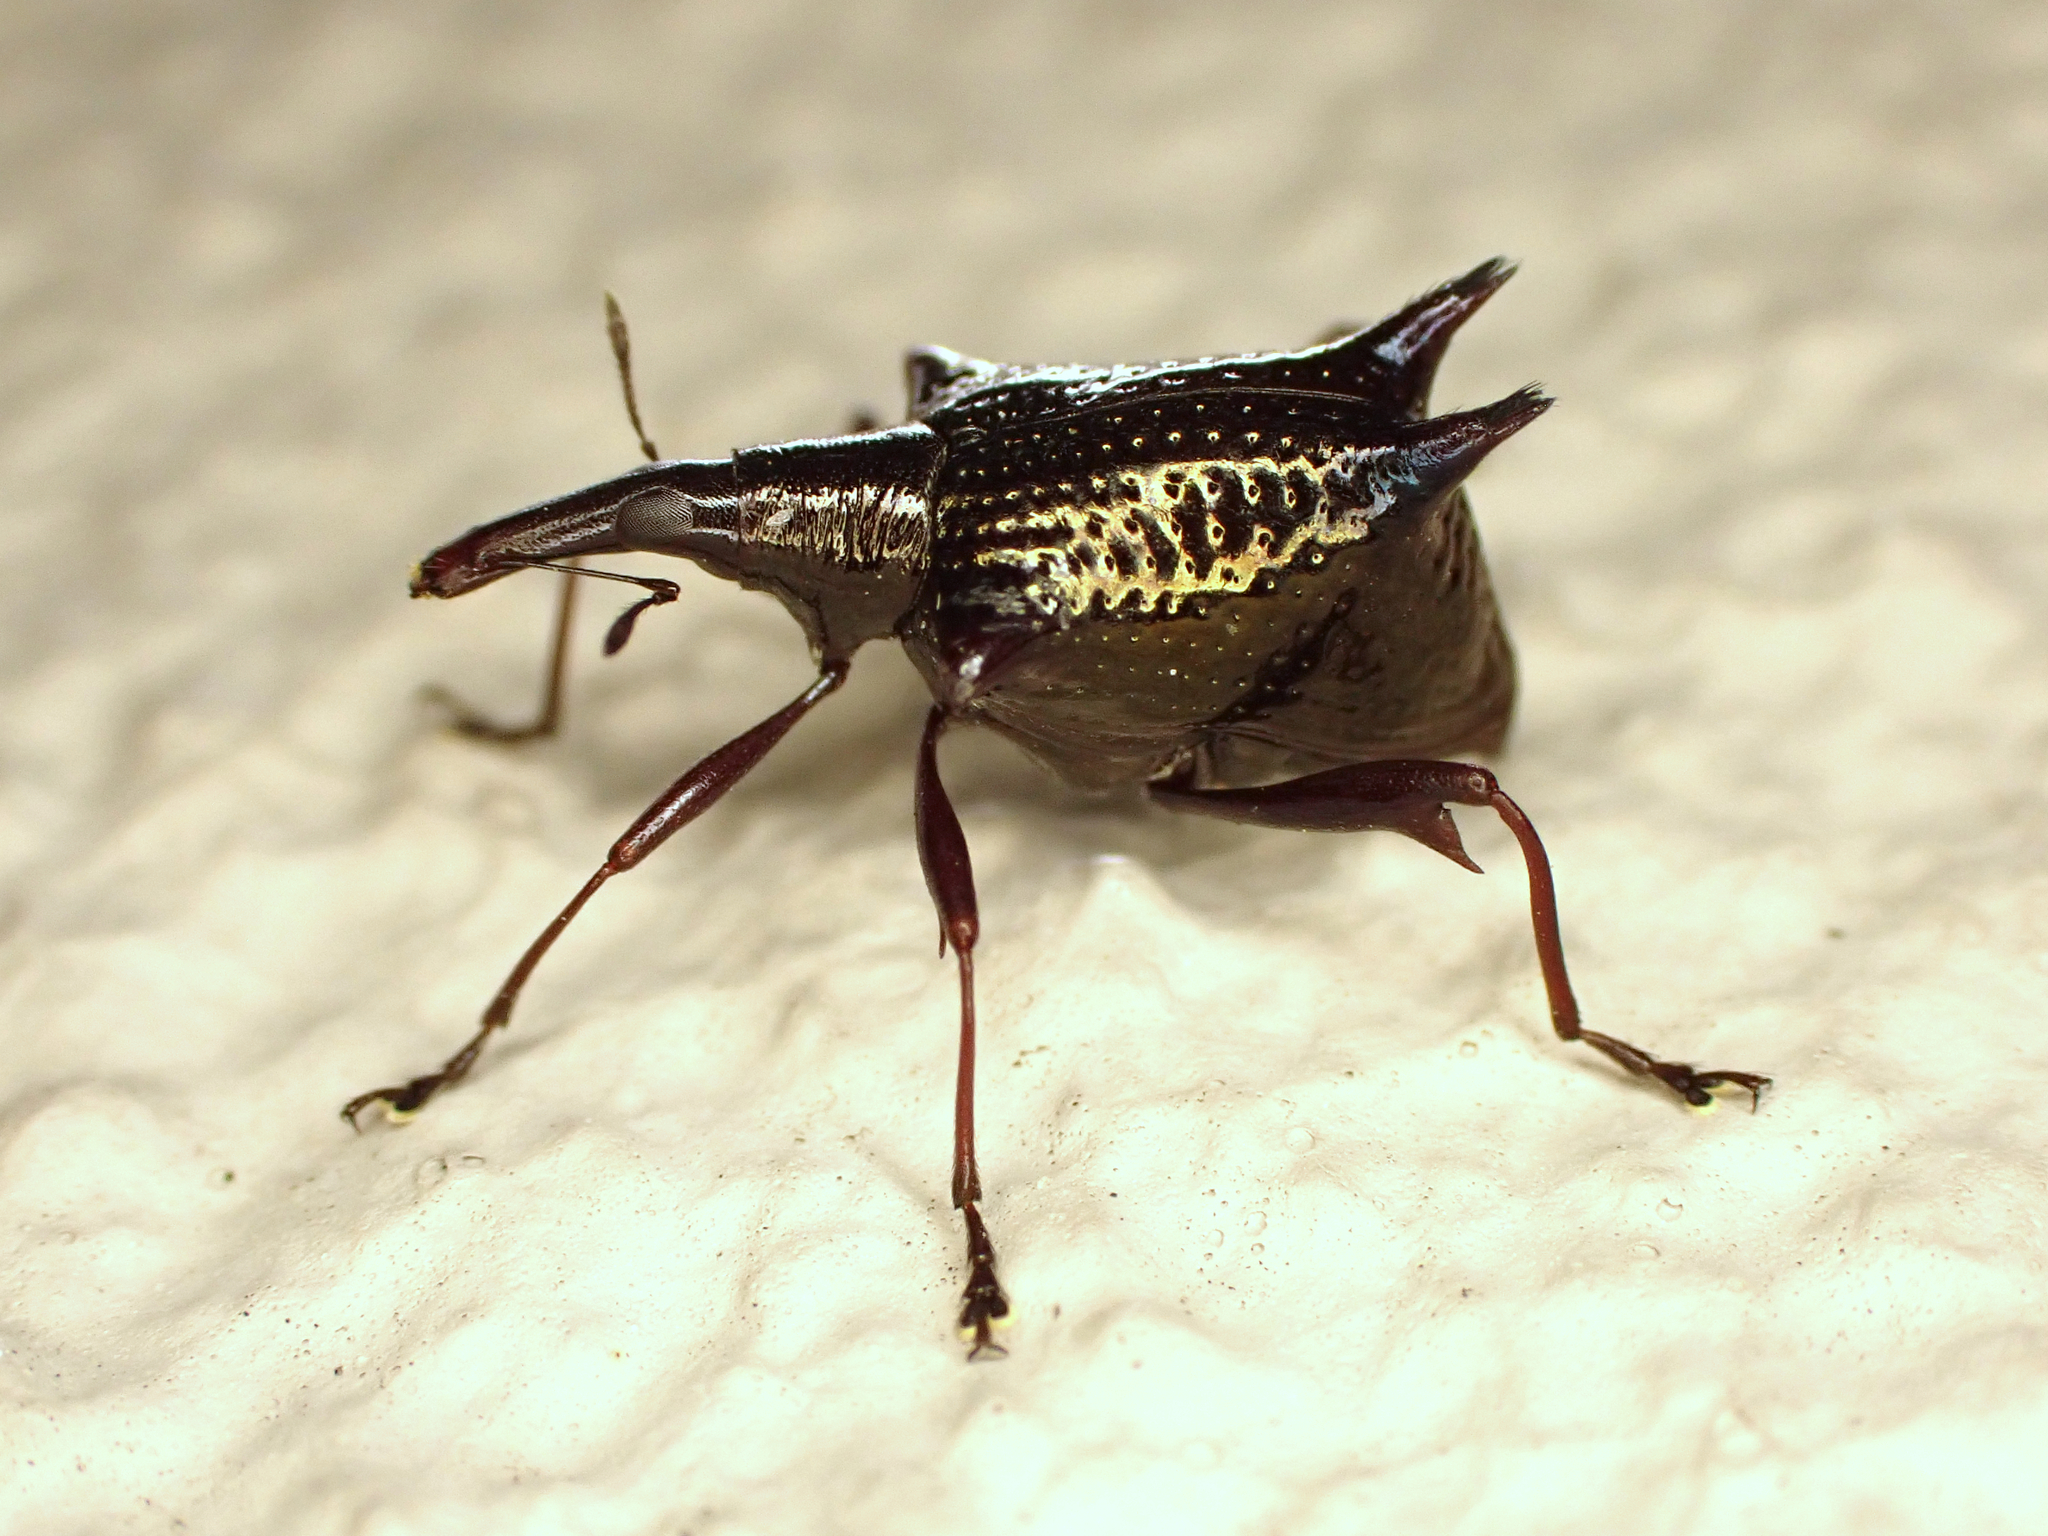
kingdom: Animalia
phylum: Arthropoda
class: Insecta
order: Coleoptera
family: Curculionidae
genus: Scolopterus
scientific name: Scolopterus aequus
